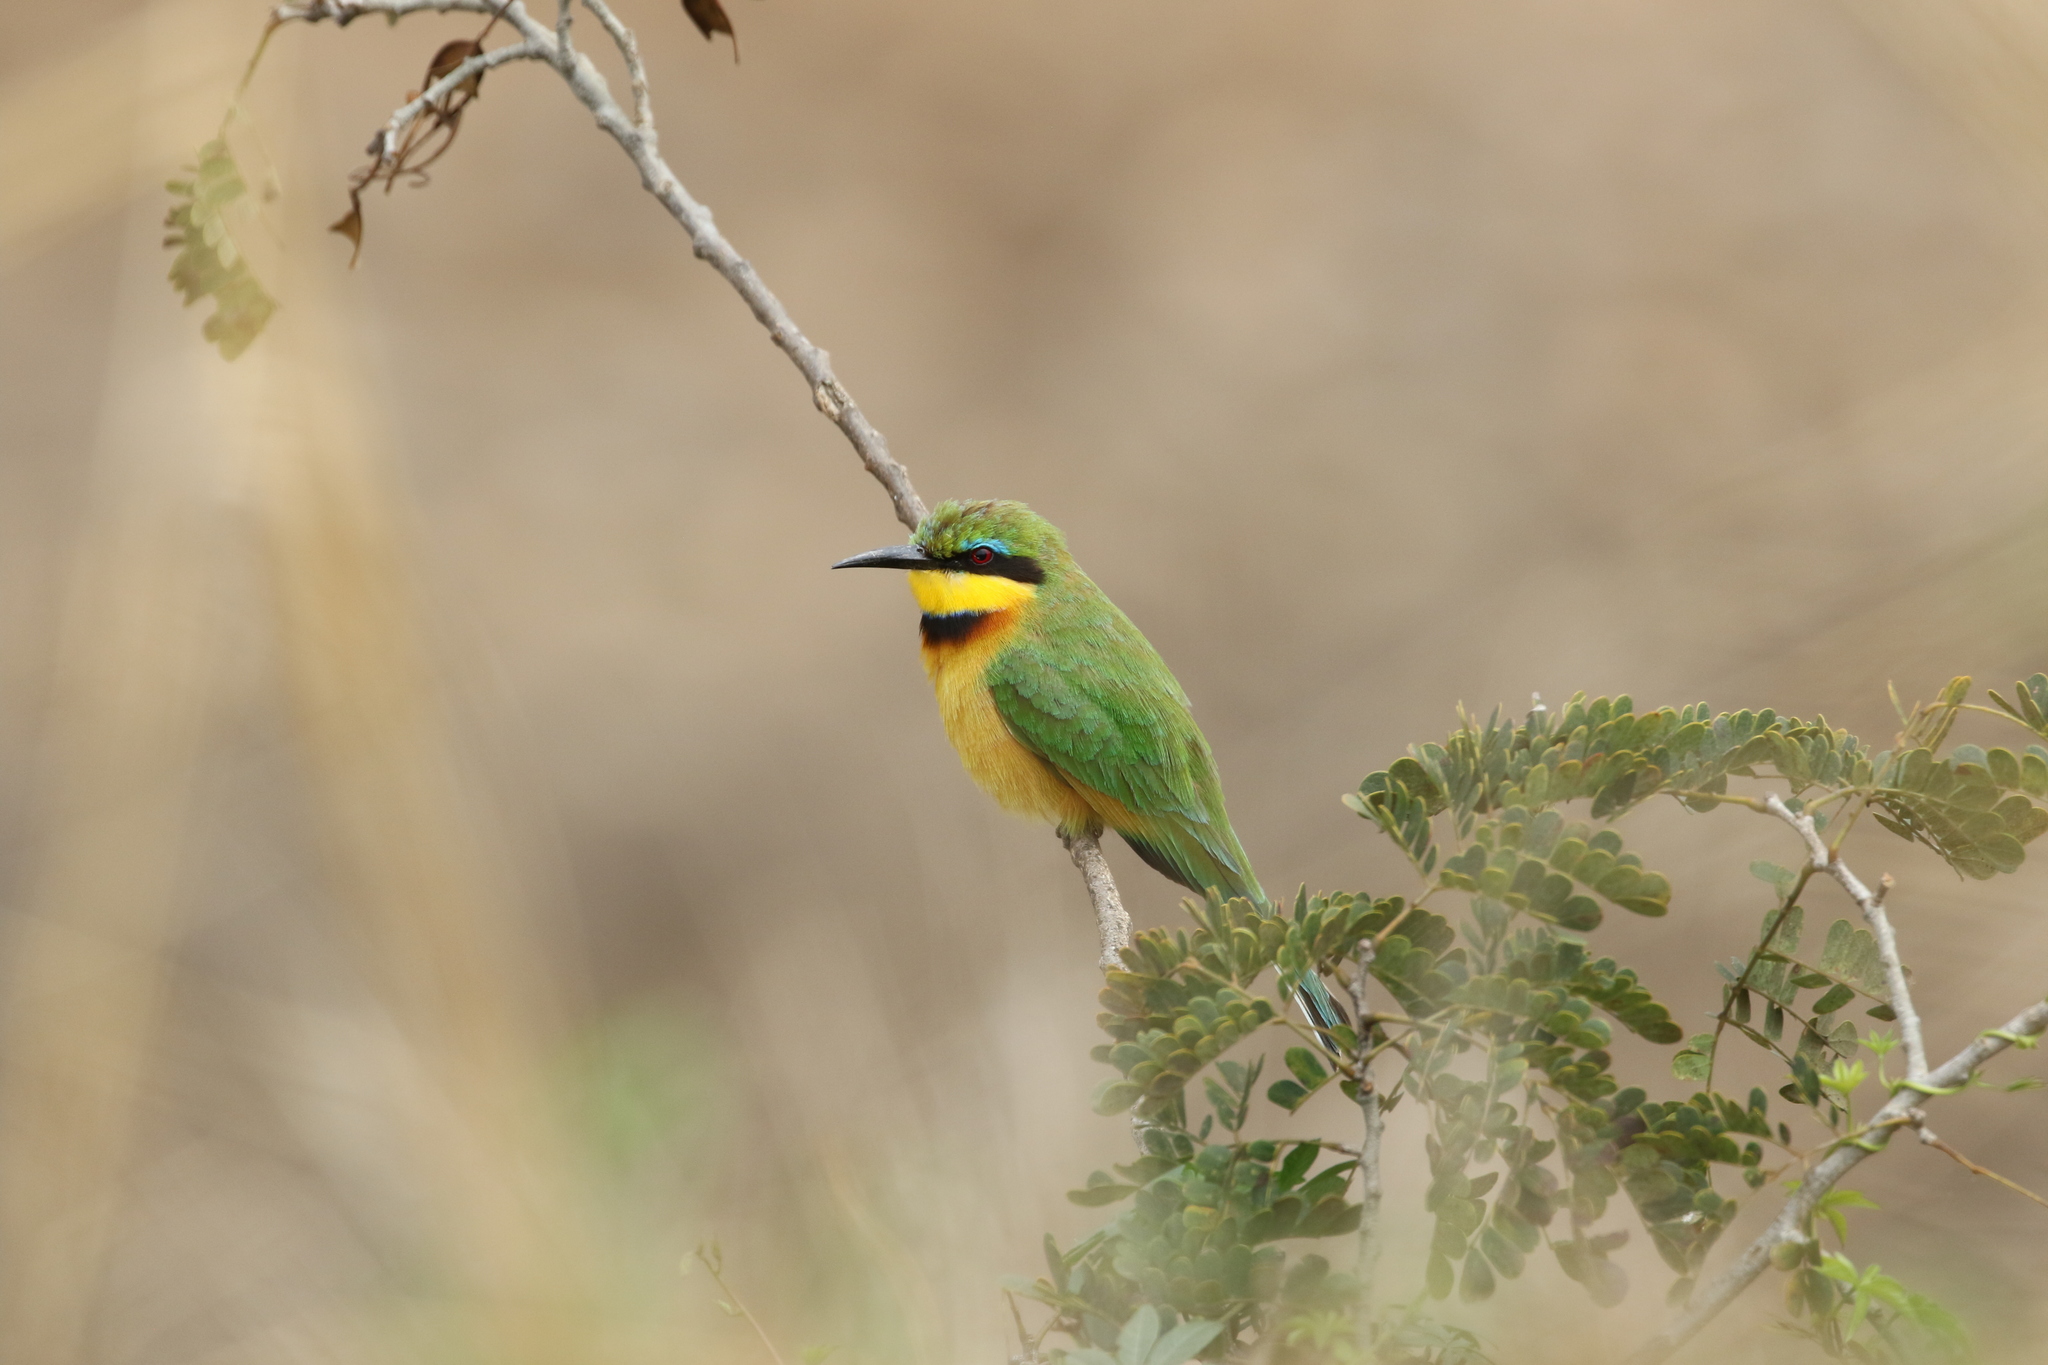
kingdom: Animalia
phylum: Chordata
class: Aves
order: Coraciiformes
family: Meropidae
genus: Merops
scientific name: Merops pusillus
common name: Little bee-eater
